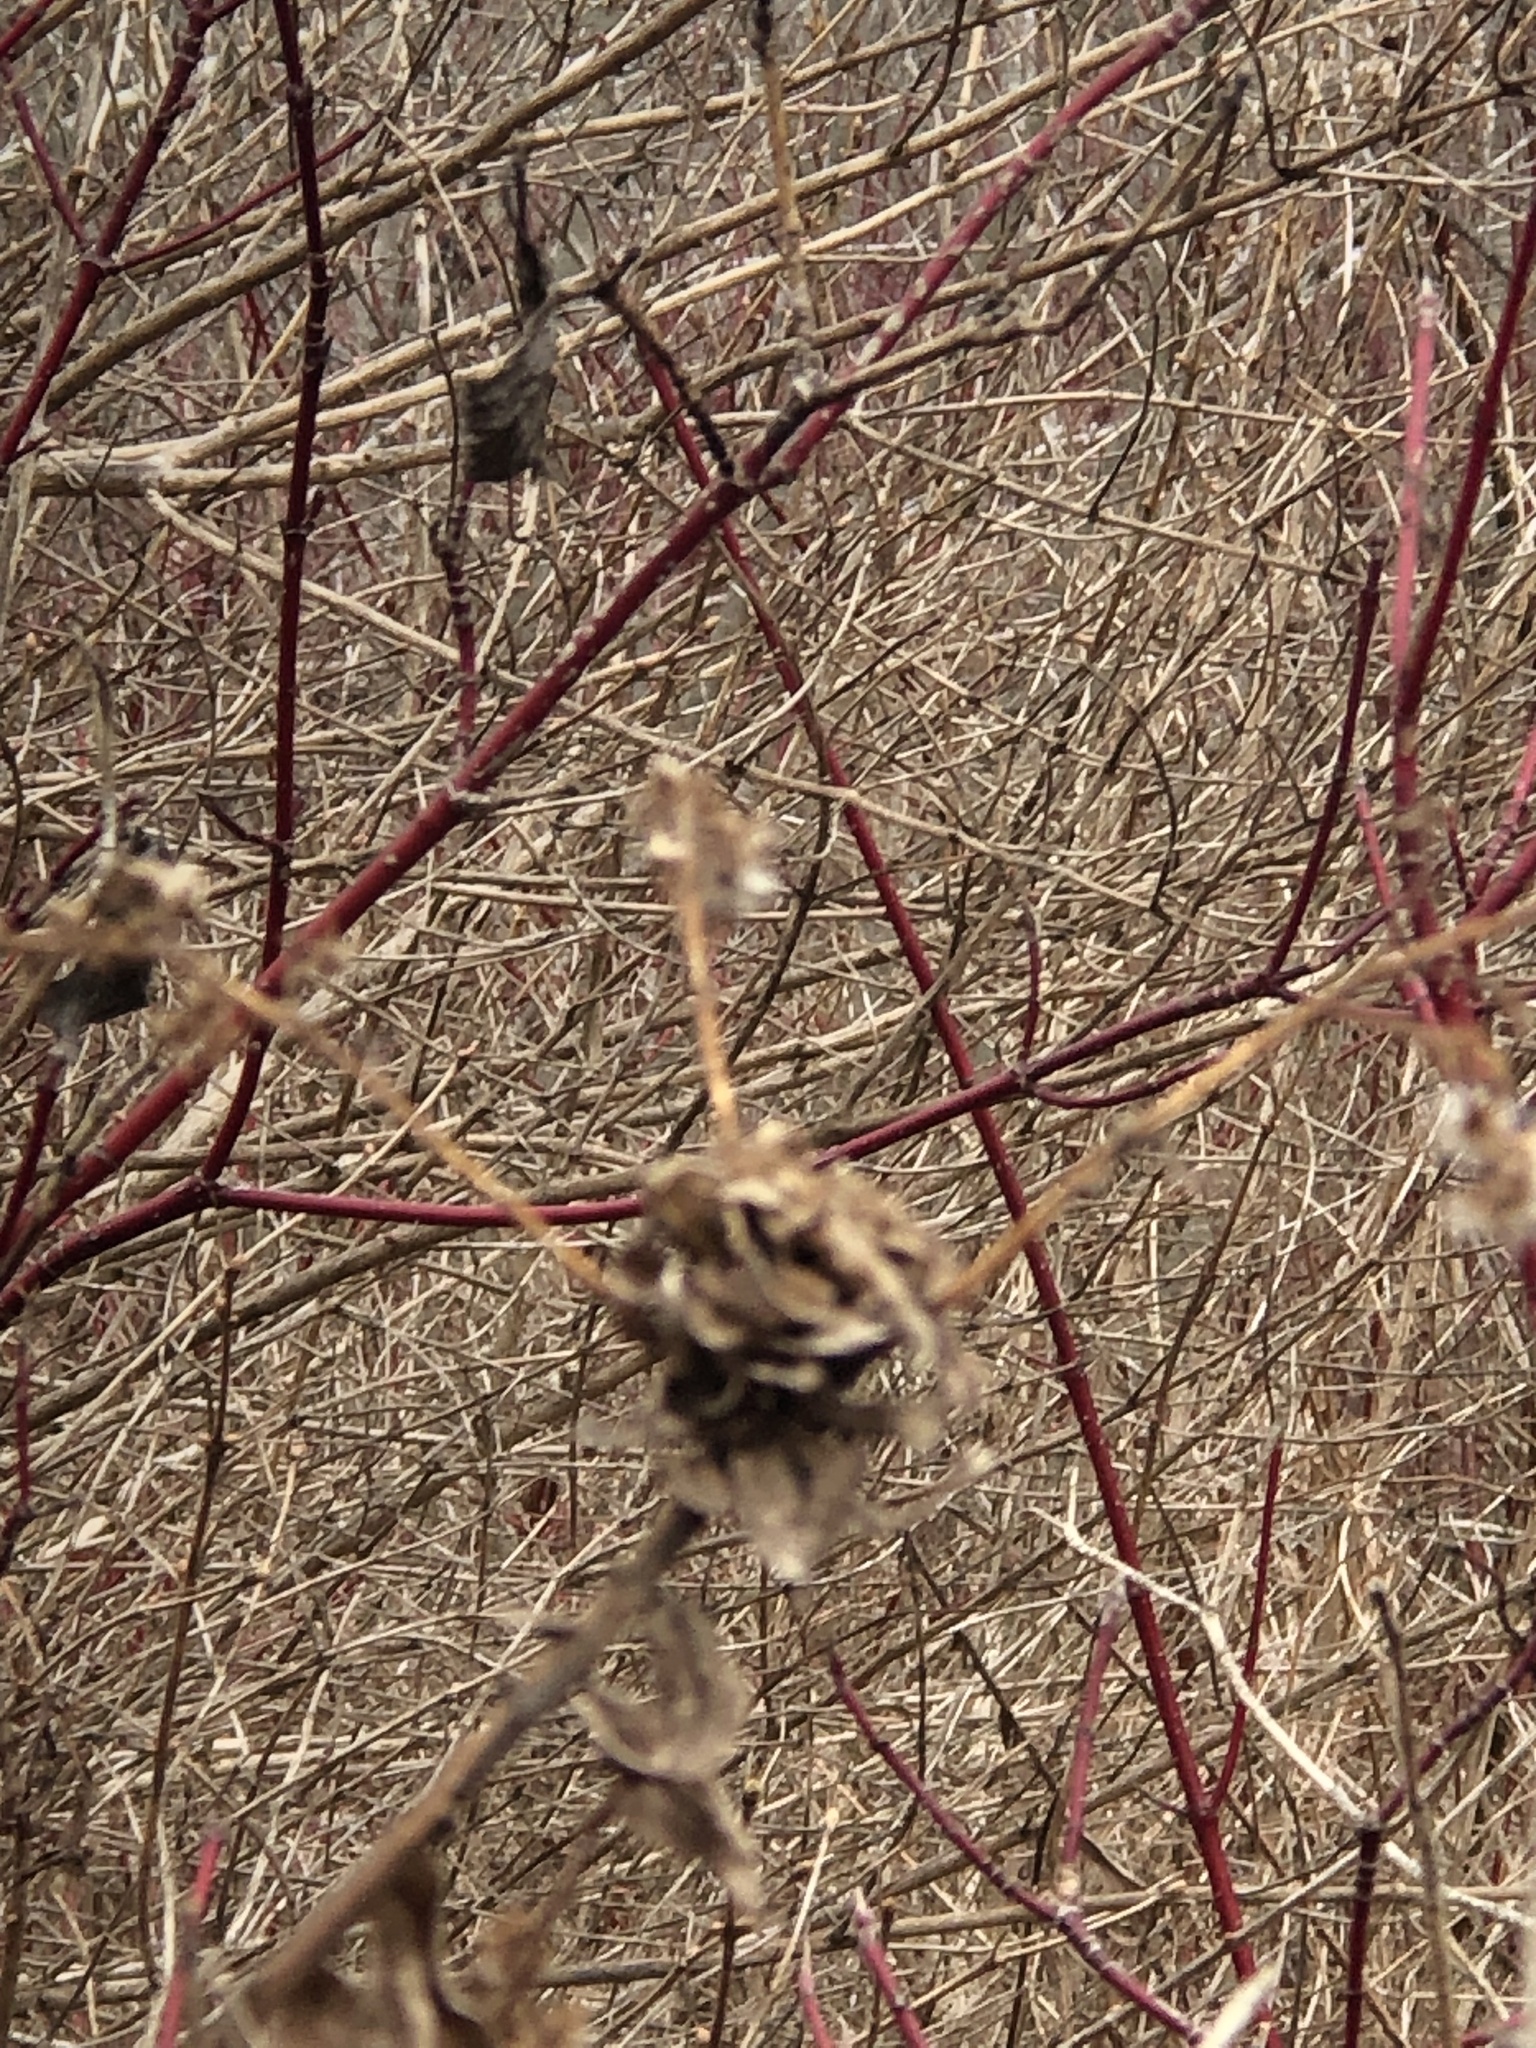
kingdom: Animalia
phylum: Arthropoda
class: Insecta
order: Diptera
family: Cecidomyiidae
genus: Rhopalomyia
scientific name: Rhopalomyia solidaginis
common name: Goldenrod bunch gall midge
